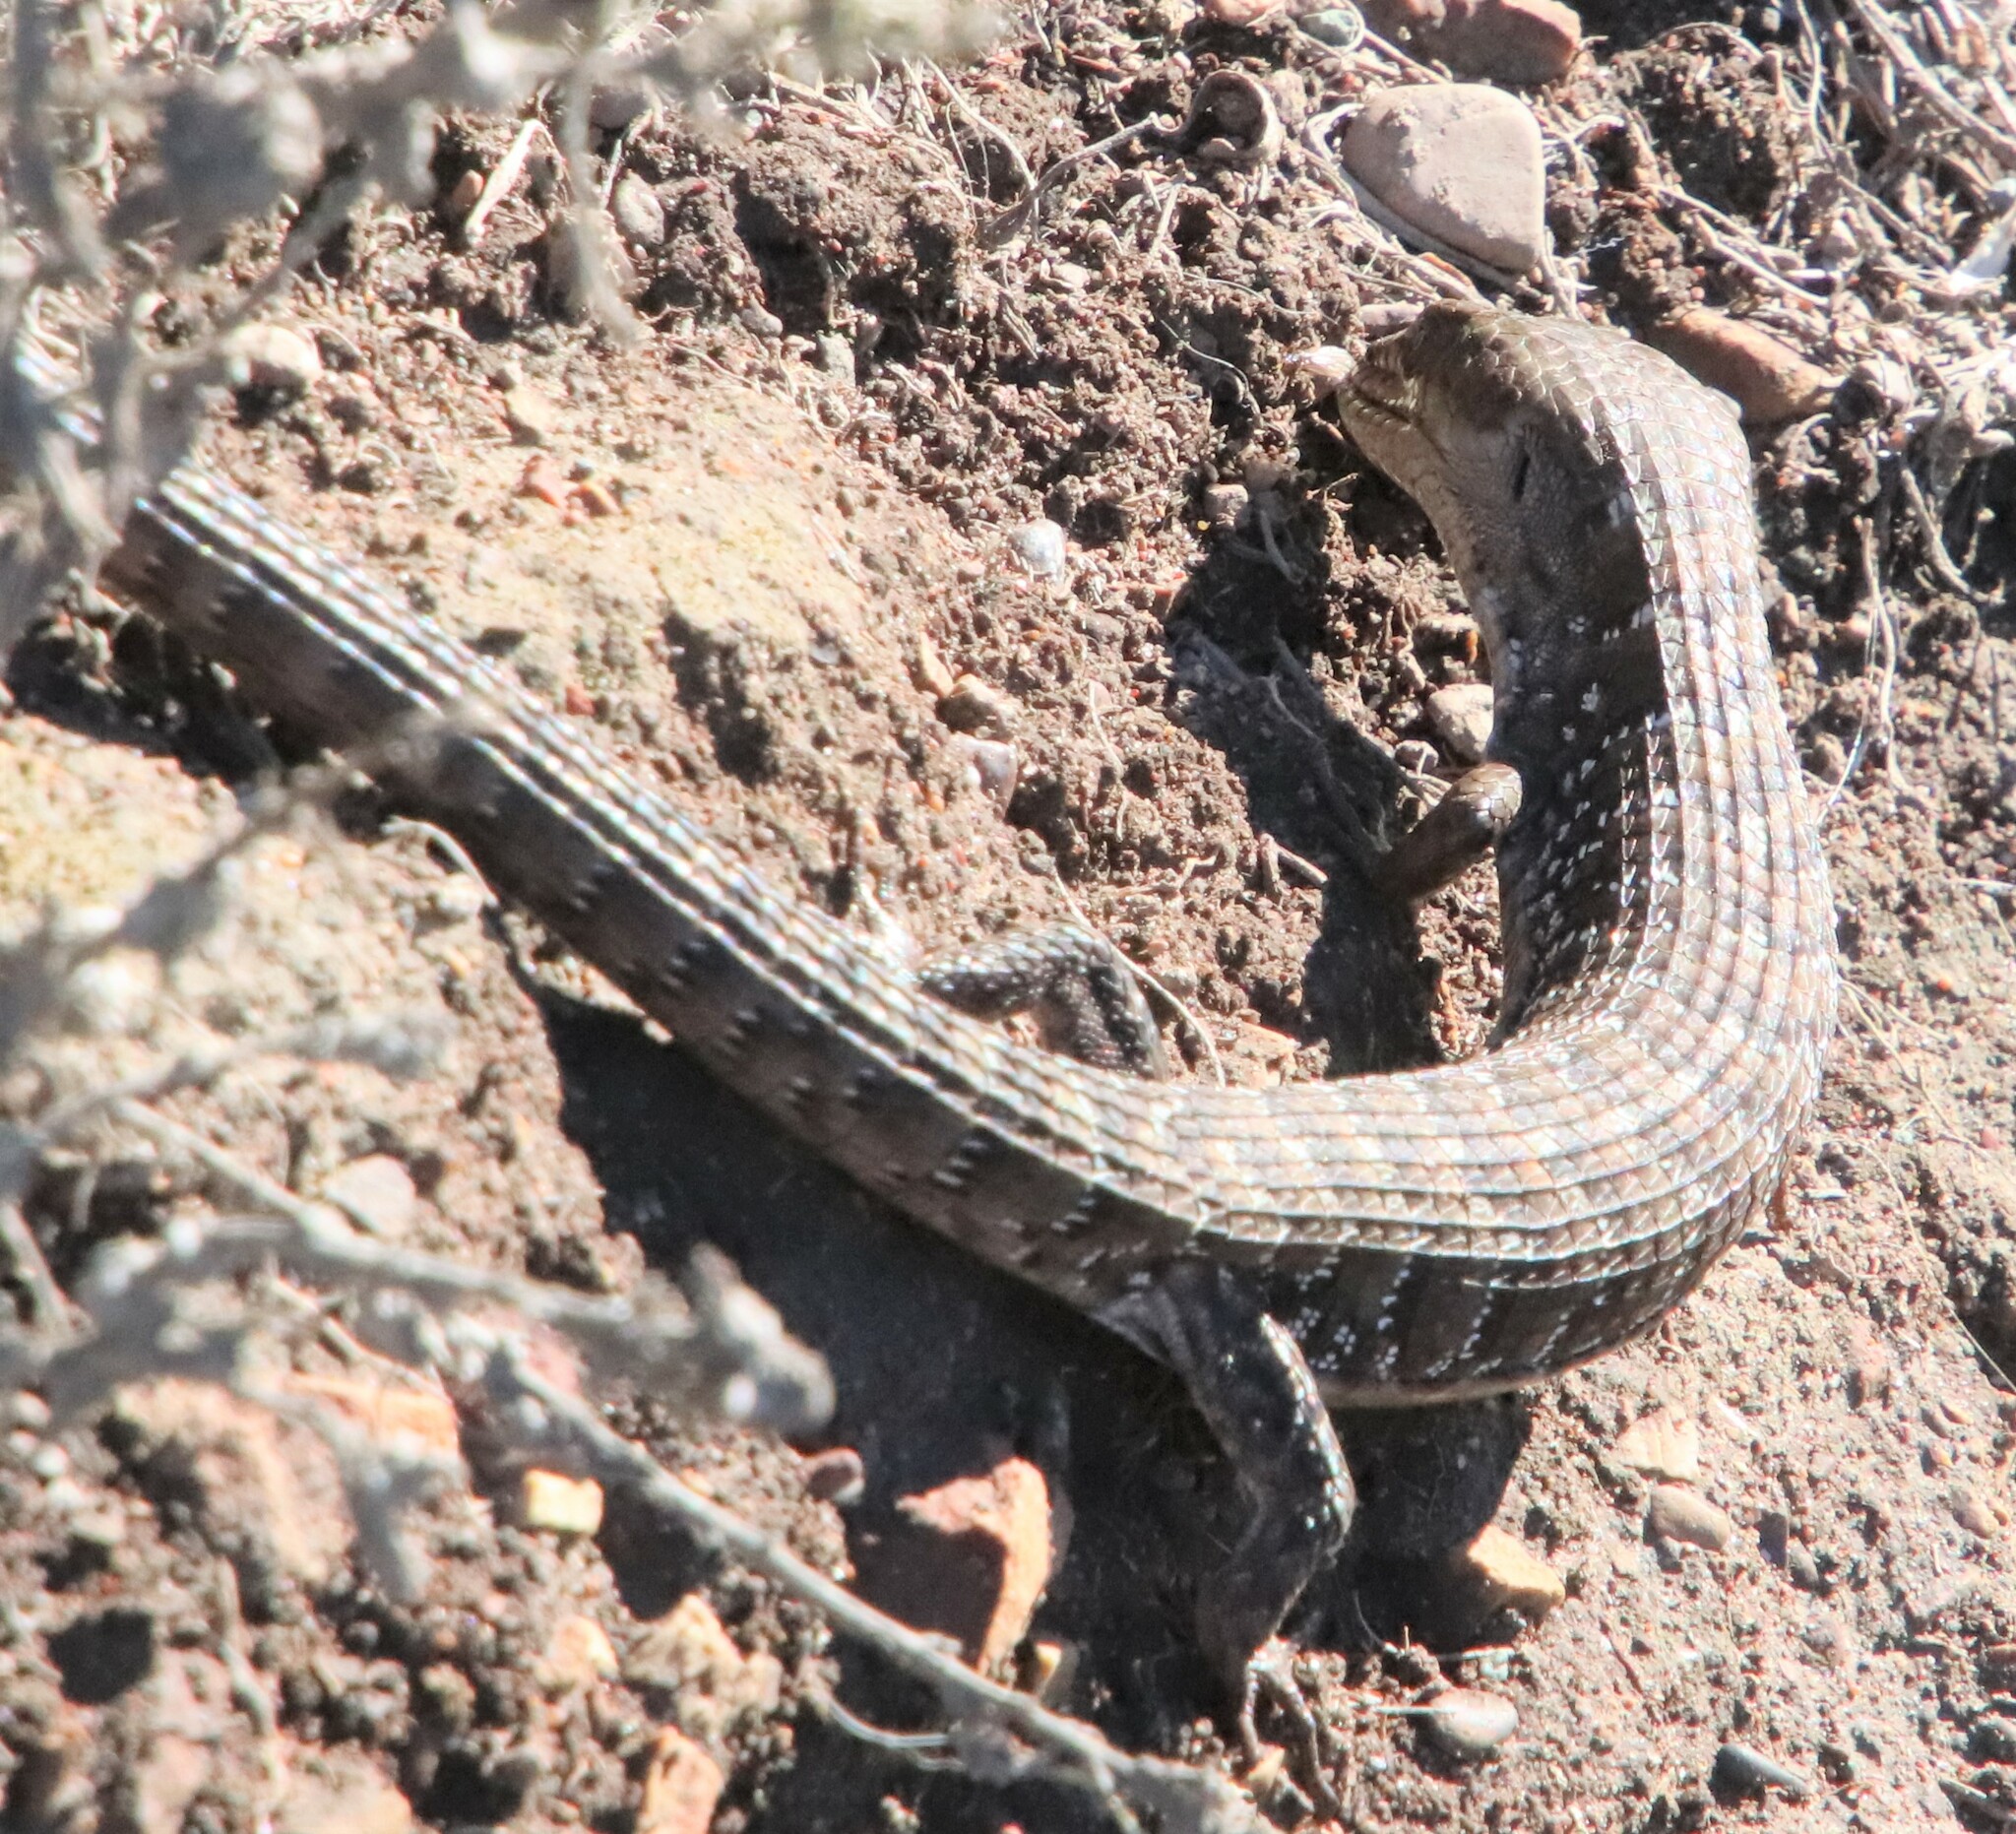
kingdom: Animalia
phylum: Chordata
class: Squamata
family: Anguidae
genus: Elgaria
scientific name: Elgaria multicarinata
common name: Southern alligator lizard
